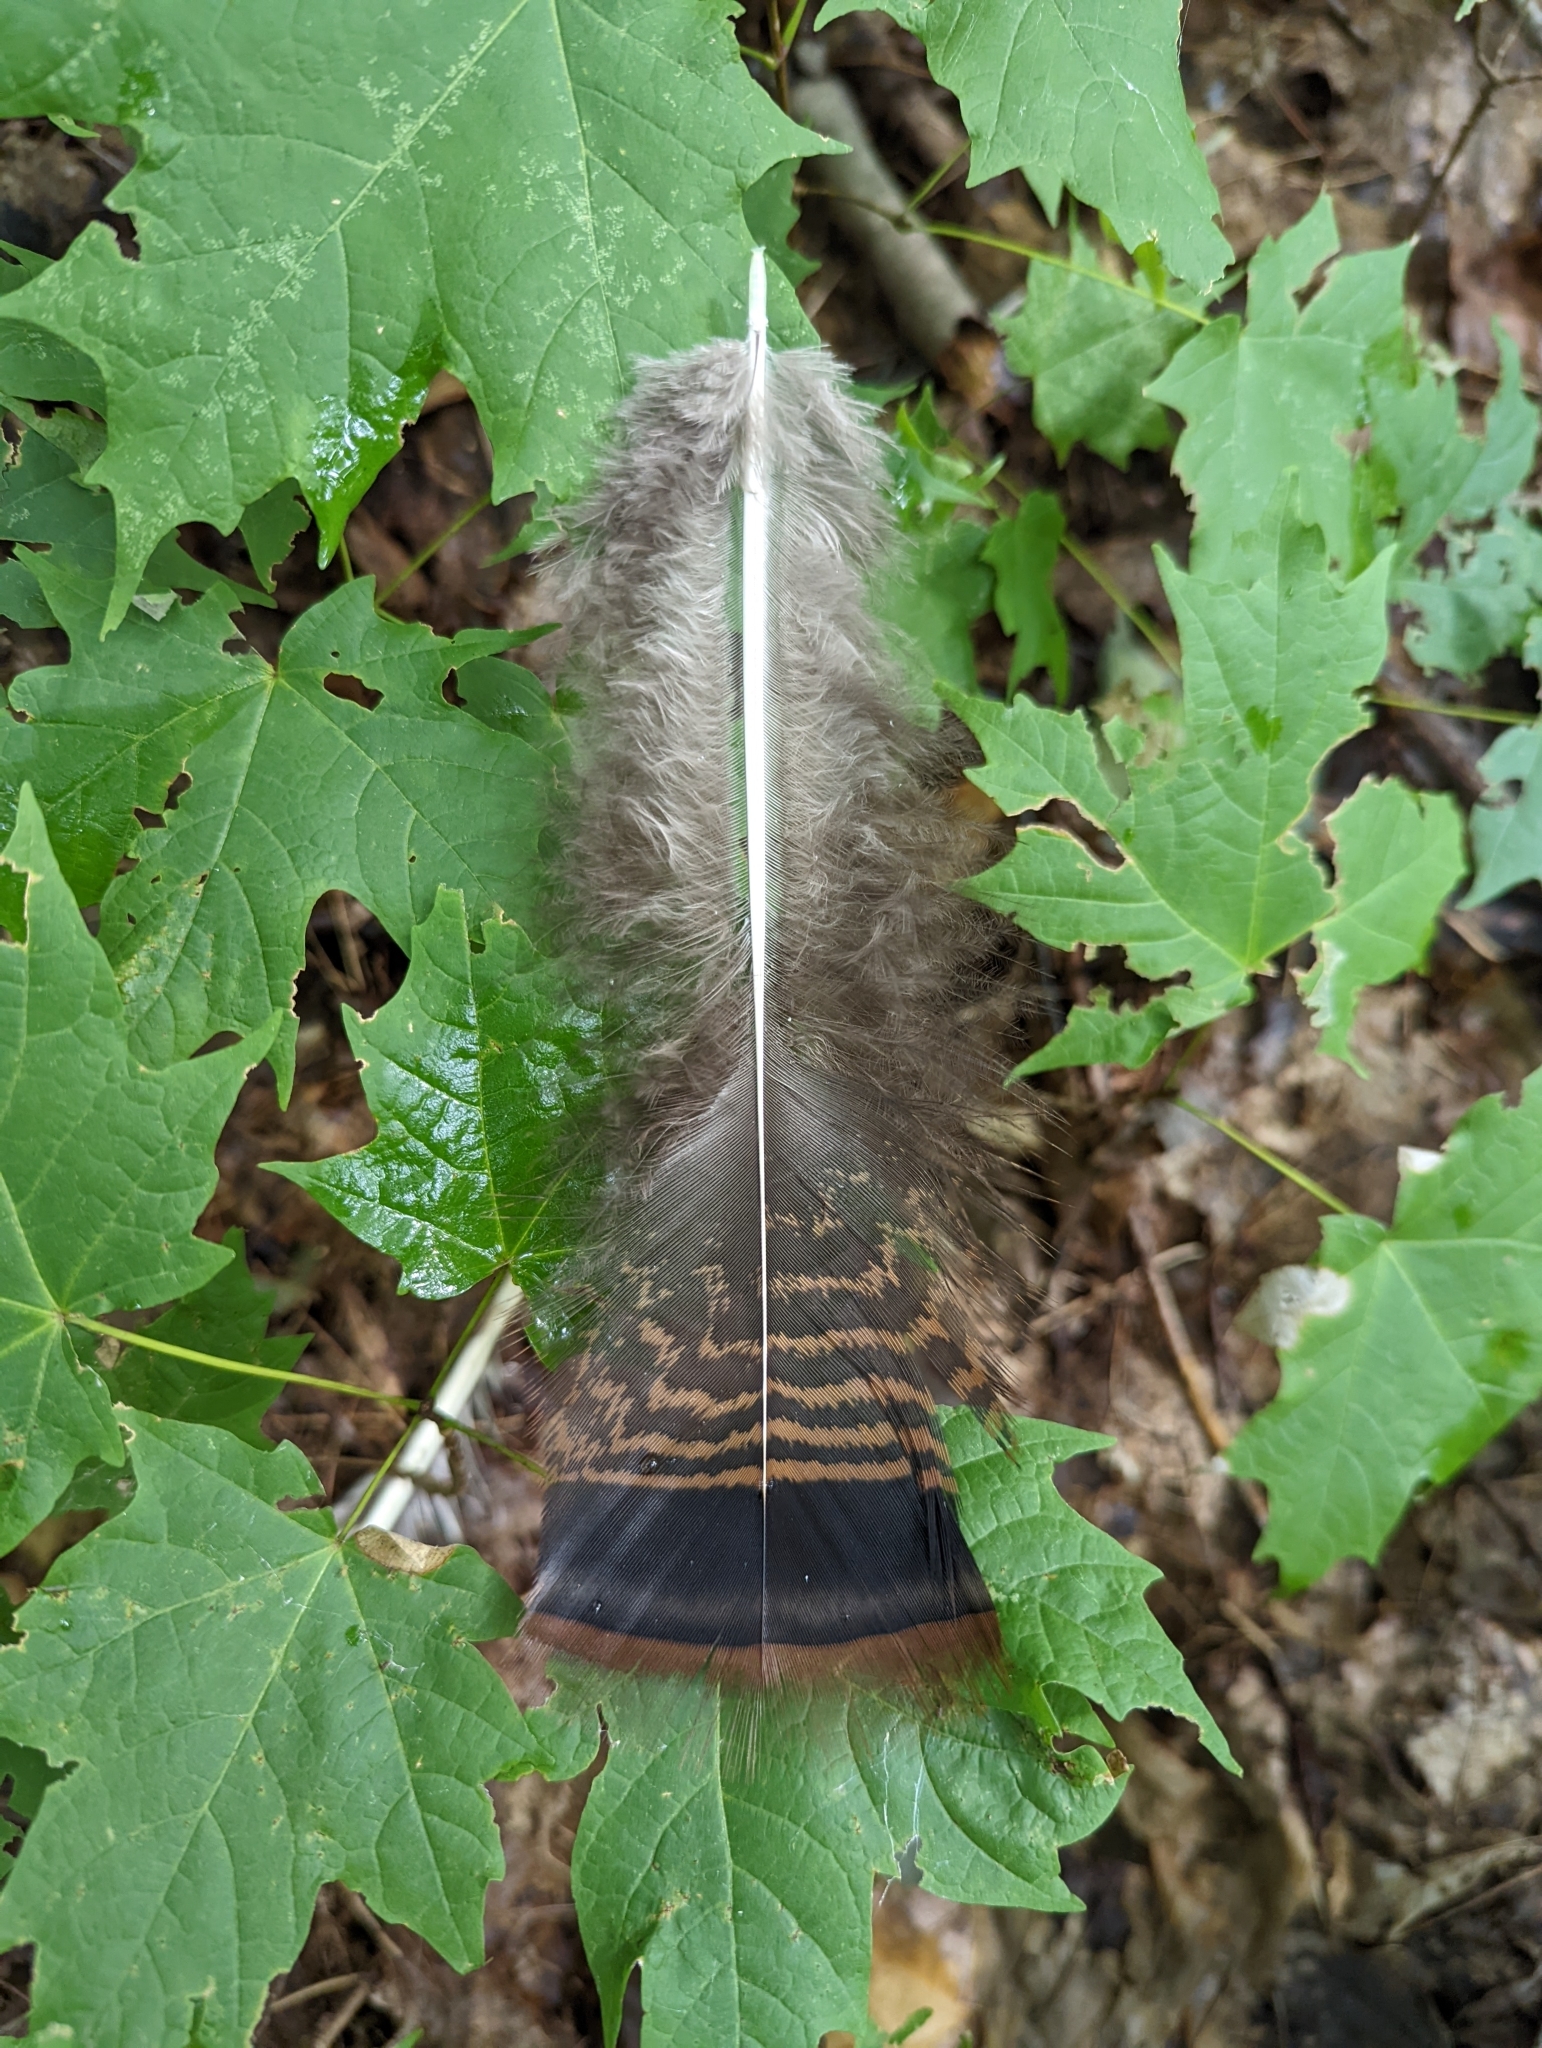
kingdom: Animalia
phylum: Chordata
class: Aves
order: Galliformes
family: Phasianidae
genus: Meleagris
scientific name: Meleagris gallopavo
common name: Wild turkey
